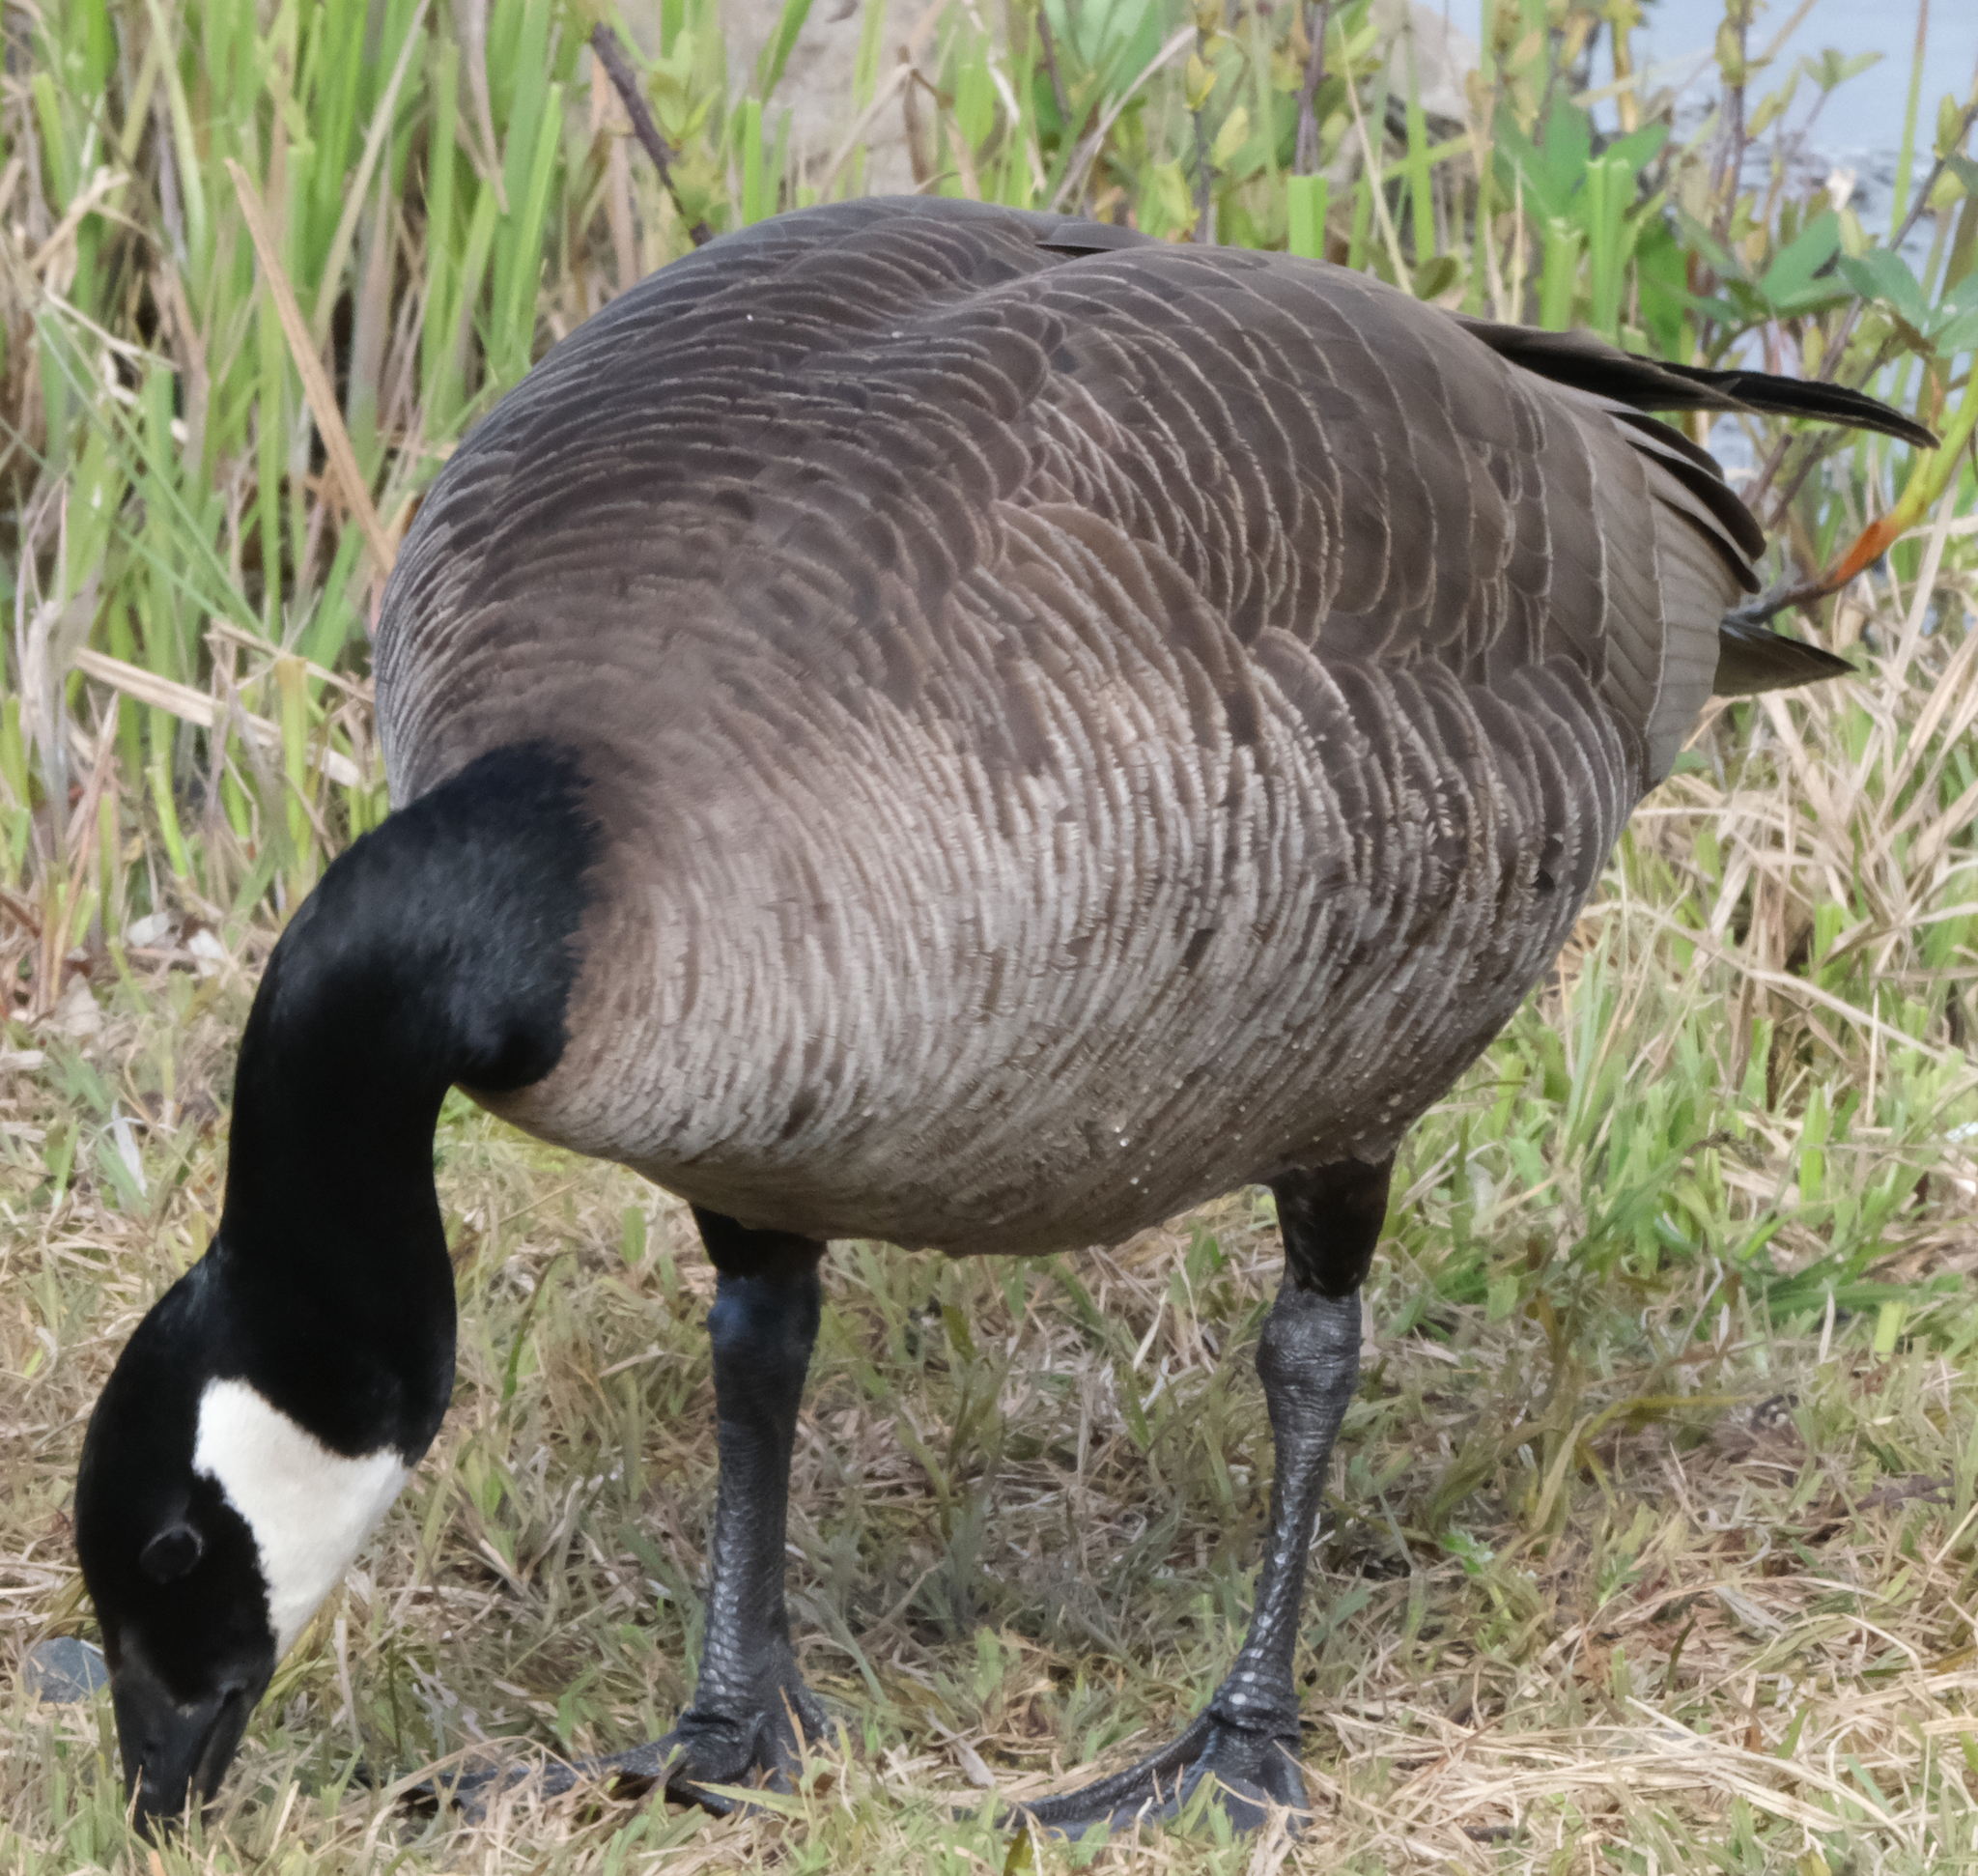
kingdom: Animalia
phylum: Chordata
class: Aves
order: Anseriformes
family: Anatidae
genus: Branta
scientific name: Branta canadensis
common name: Canada goose
